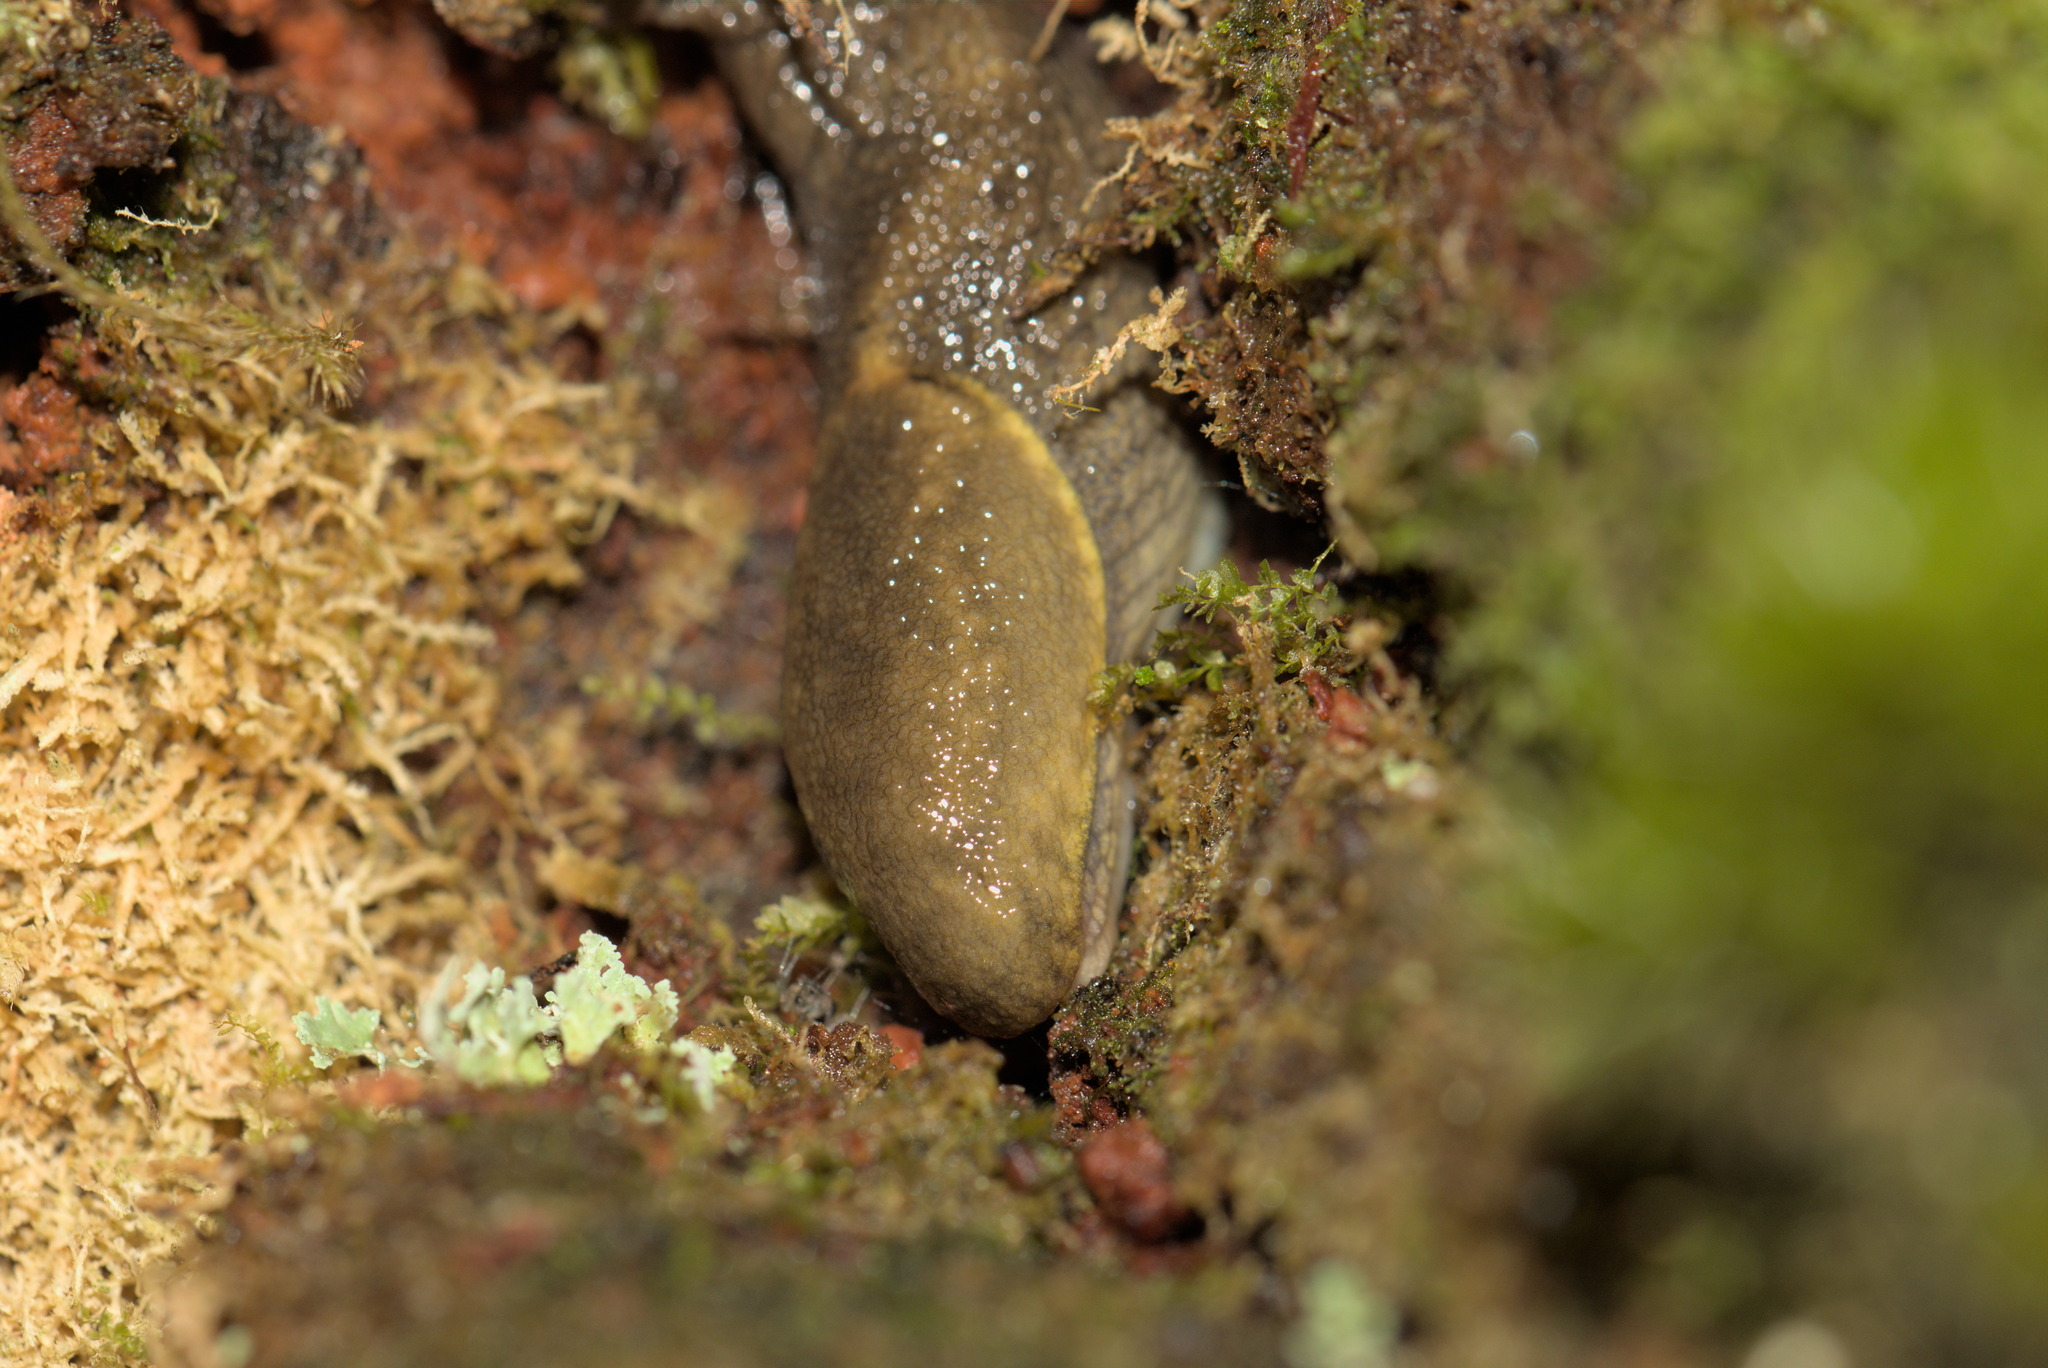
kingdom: Animalia
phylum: Mollusca
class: Gastropoda
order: Stylommatophora
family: Ariolimacidae
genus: Prophysaon
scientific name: Prophysaon foliolatum
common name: Yellow-bordered taildropper
